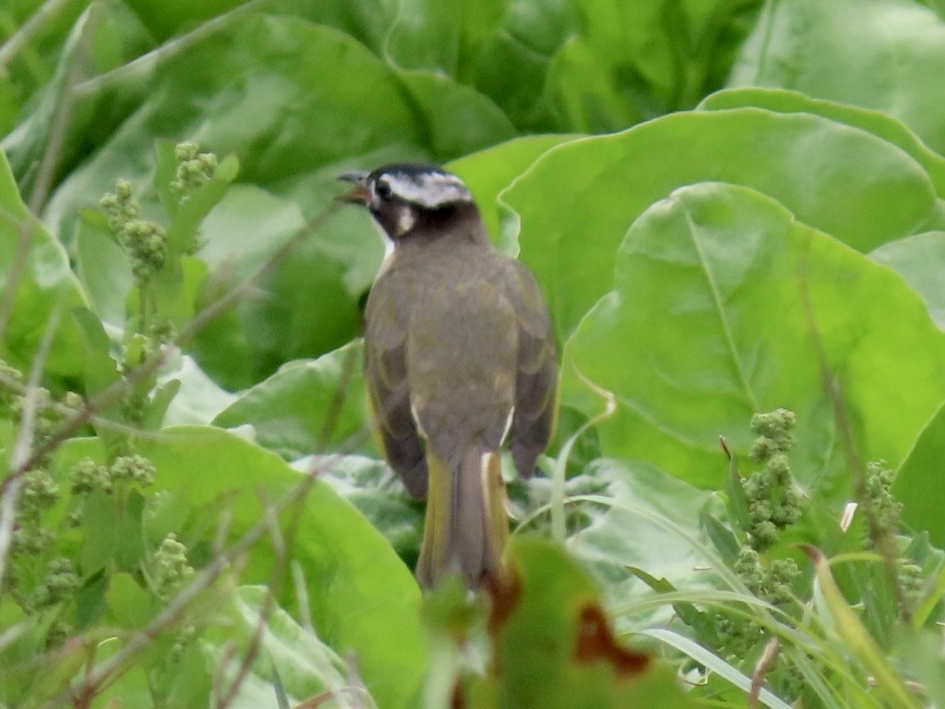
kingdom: Animalia
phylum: Chordata
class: Aves
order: Passeriformes
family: Pycnonotidae
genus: Pycnonotus
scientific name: Pycnonotus sinensis
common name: Light-vented bulbul
